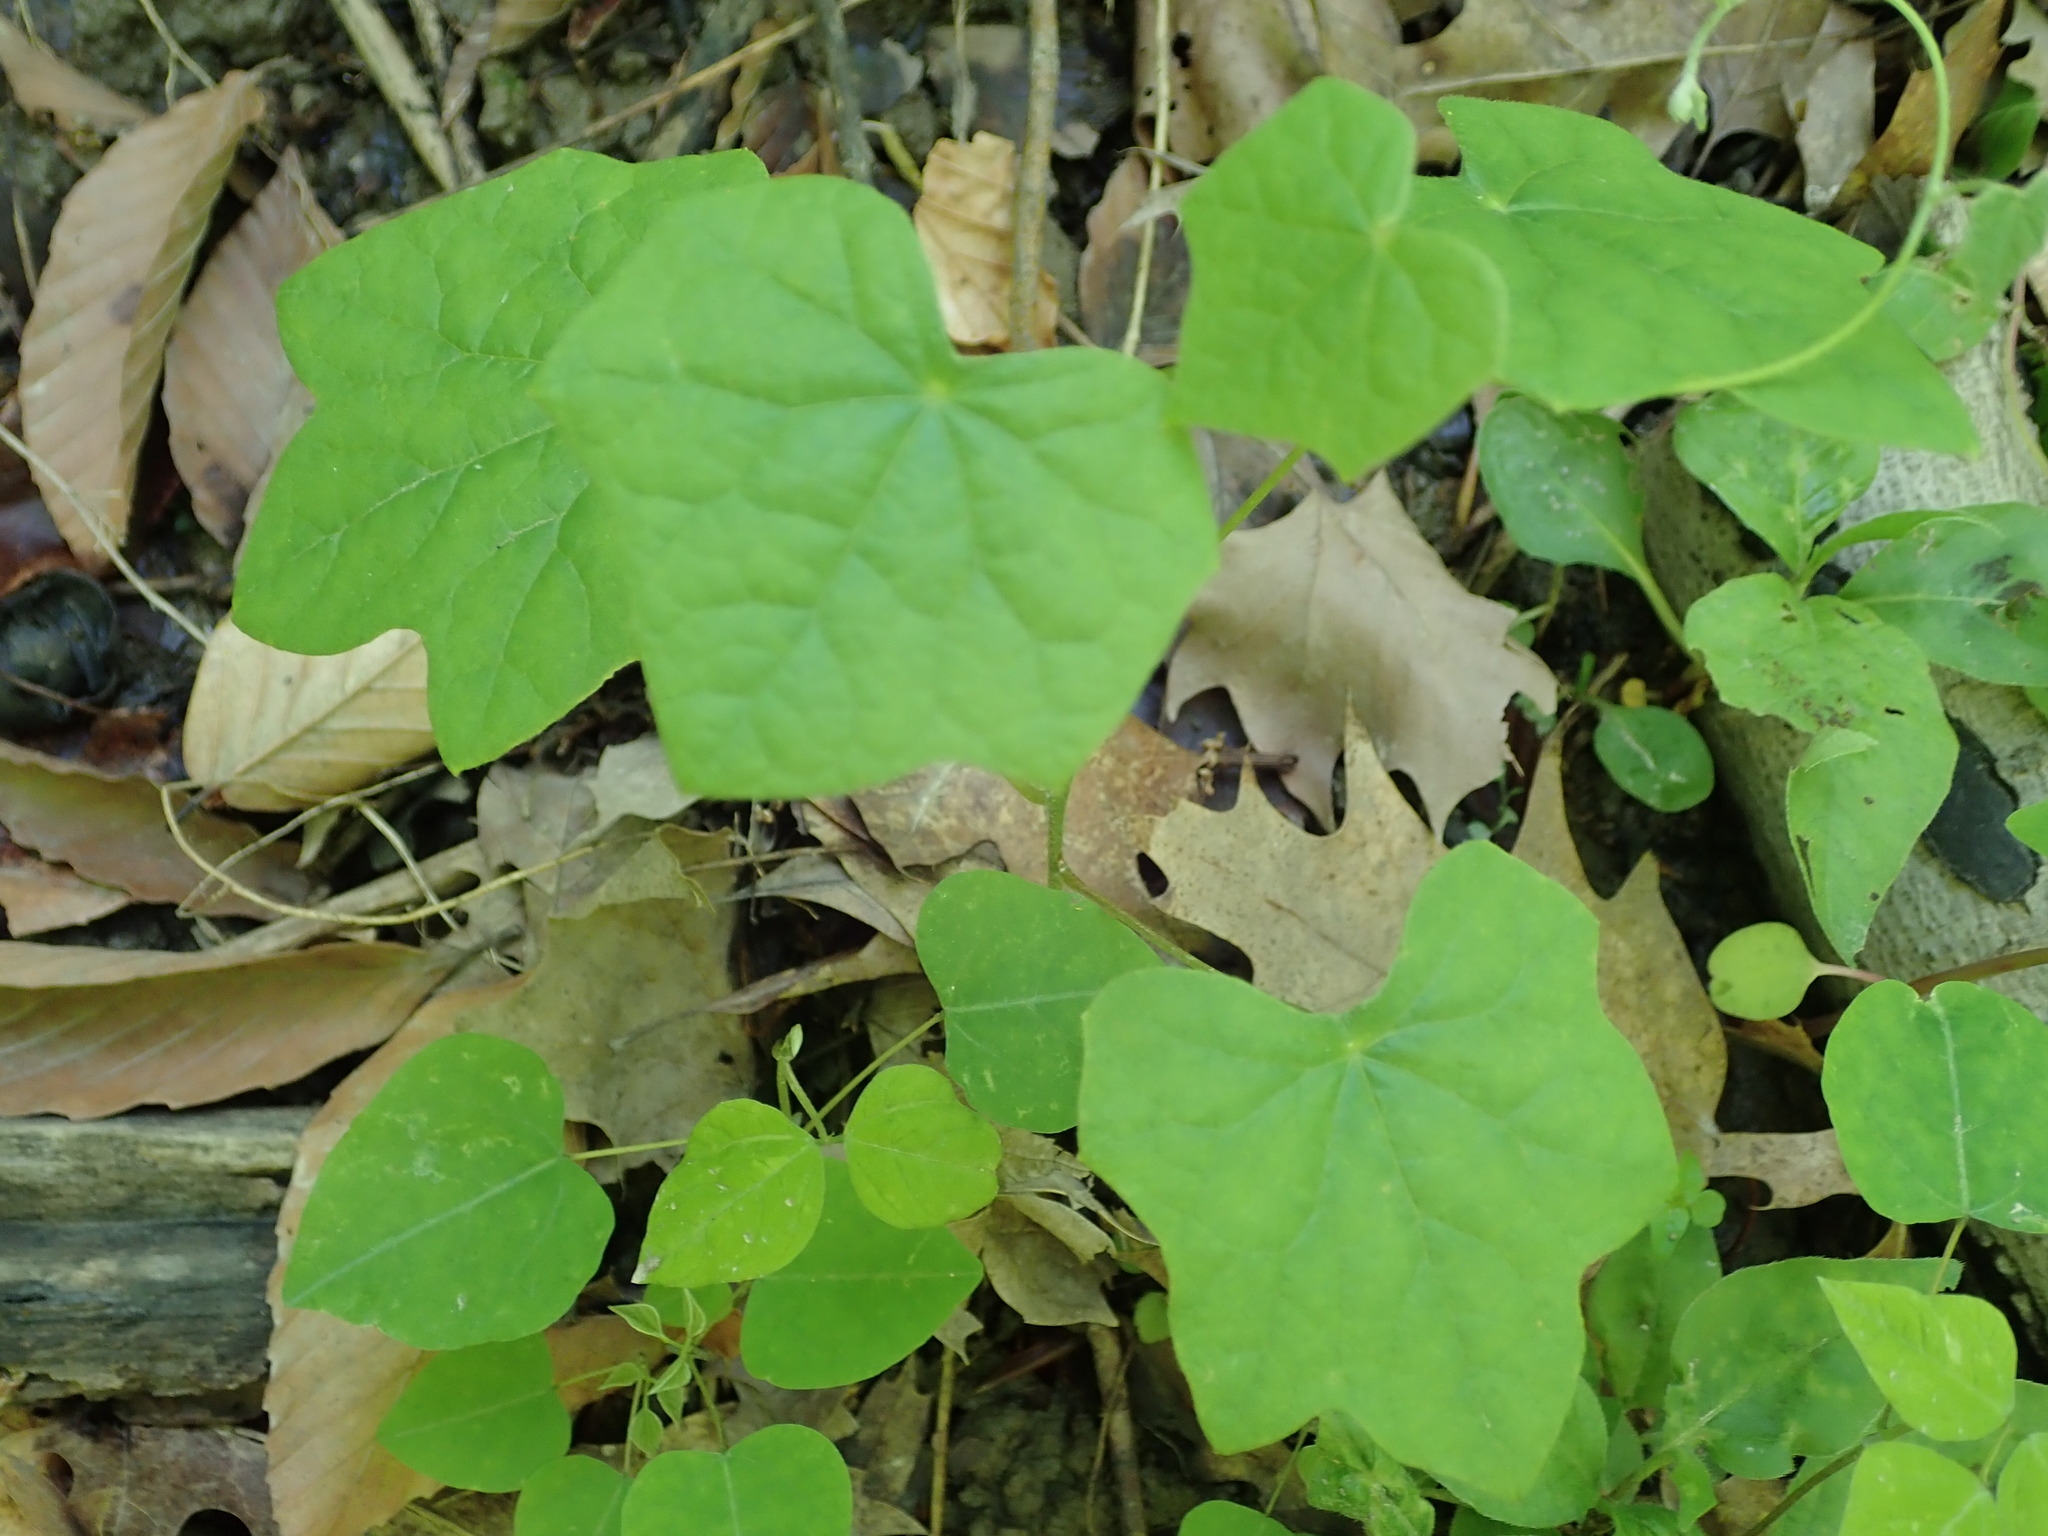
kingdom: Plantae
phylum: Tracheophyta
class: Magnoliopsida
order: Ranunculales
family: Menispermaceae
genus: Menispermum
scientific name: Menispermum canadense
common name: Moonseed
